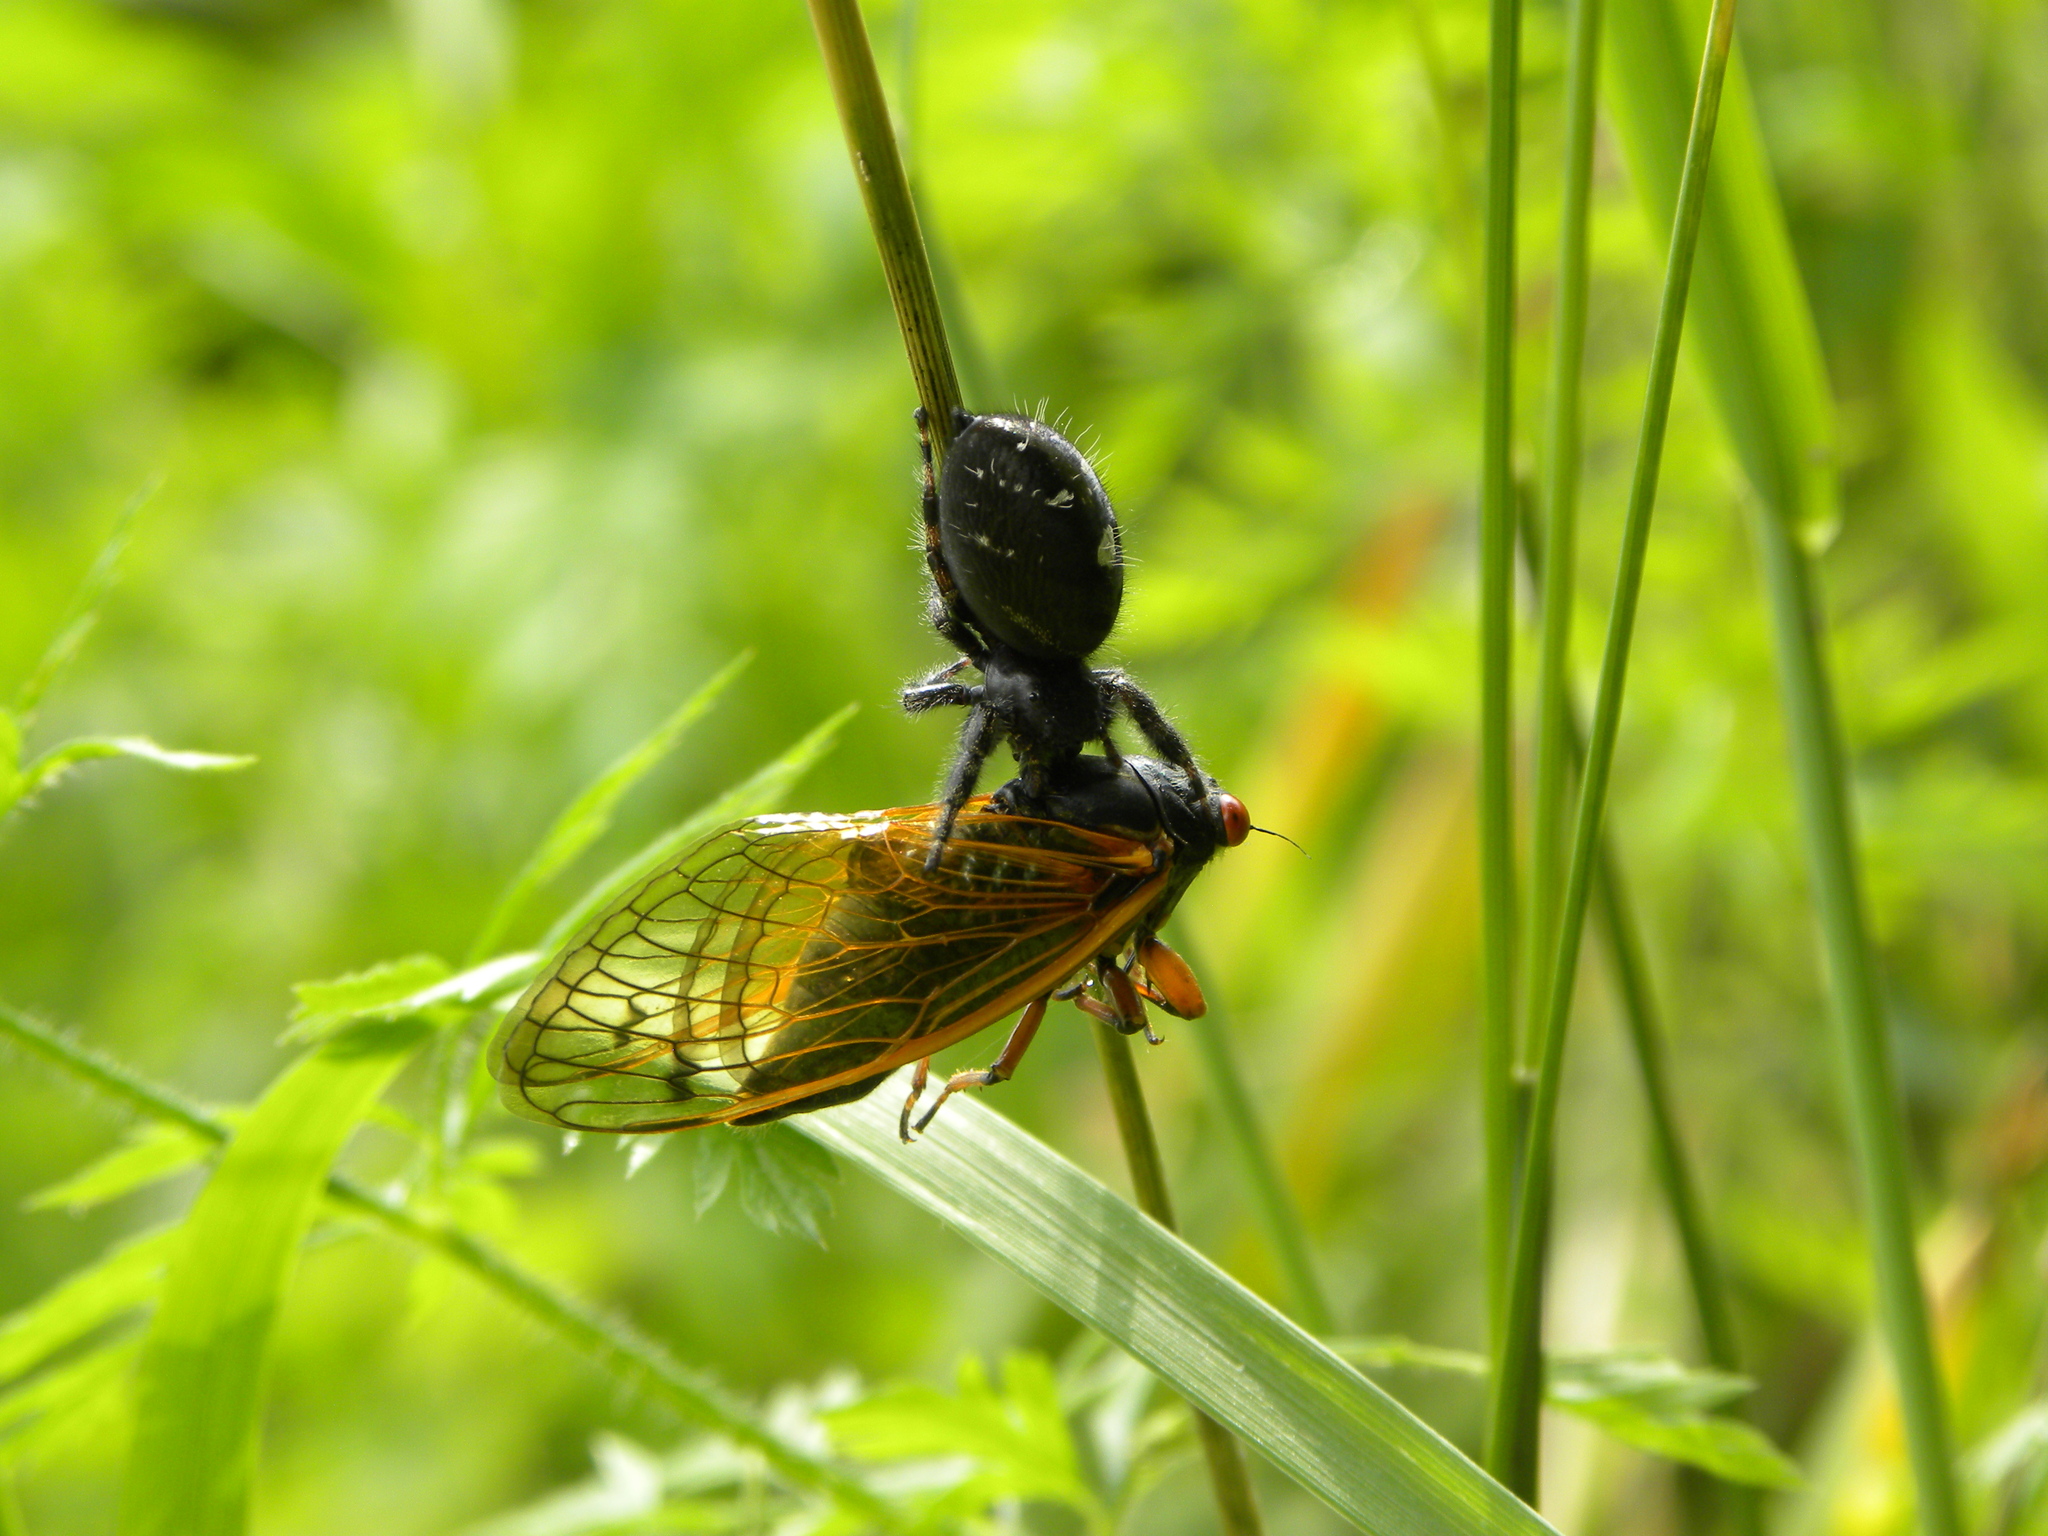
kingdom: Animalia
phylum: Arthropoda
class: Arachnida
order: Araneae
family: Salticidae
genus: Phidippus
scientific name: Phidippus audax
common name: Bold jumper
